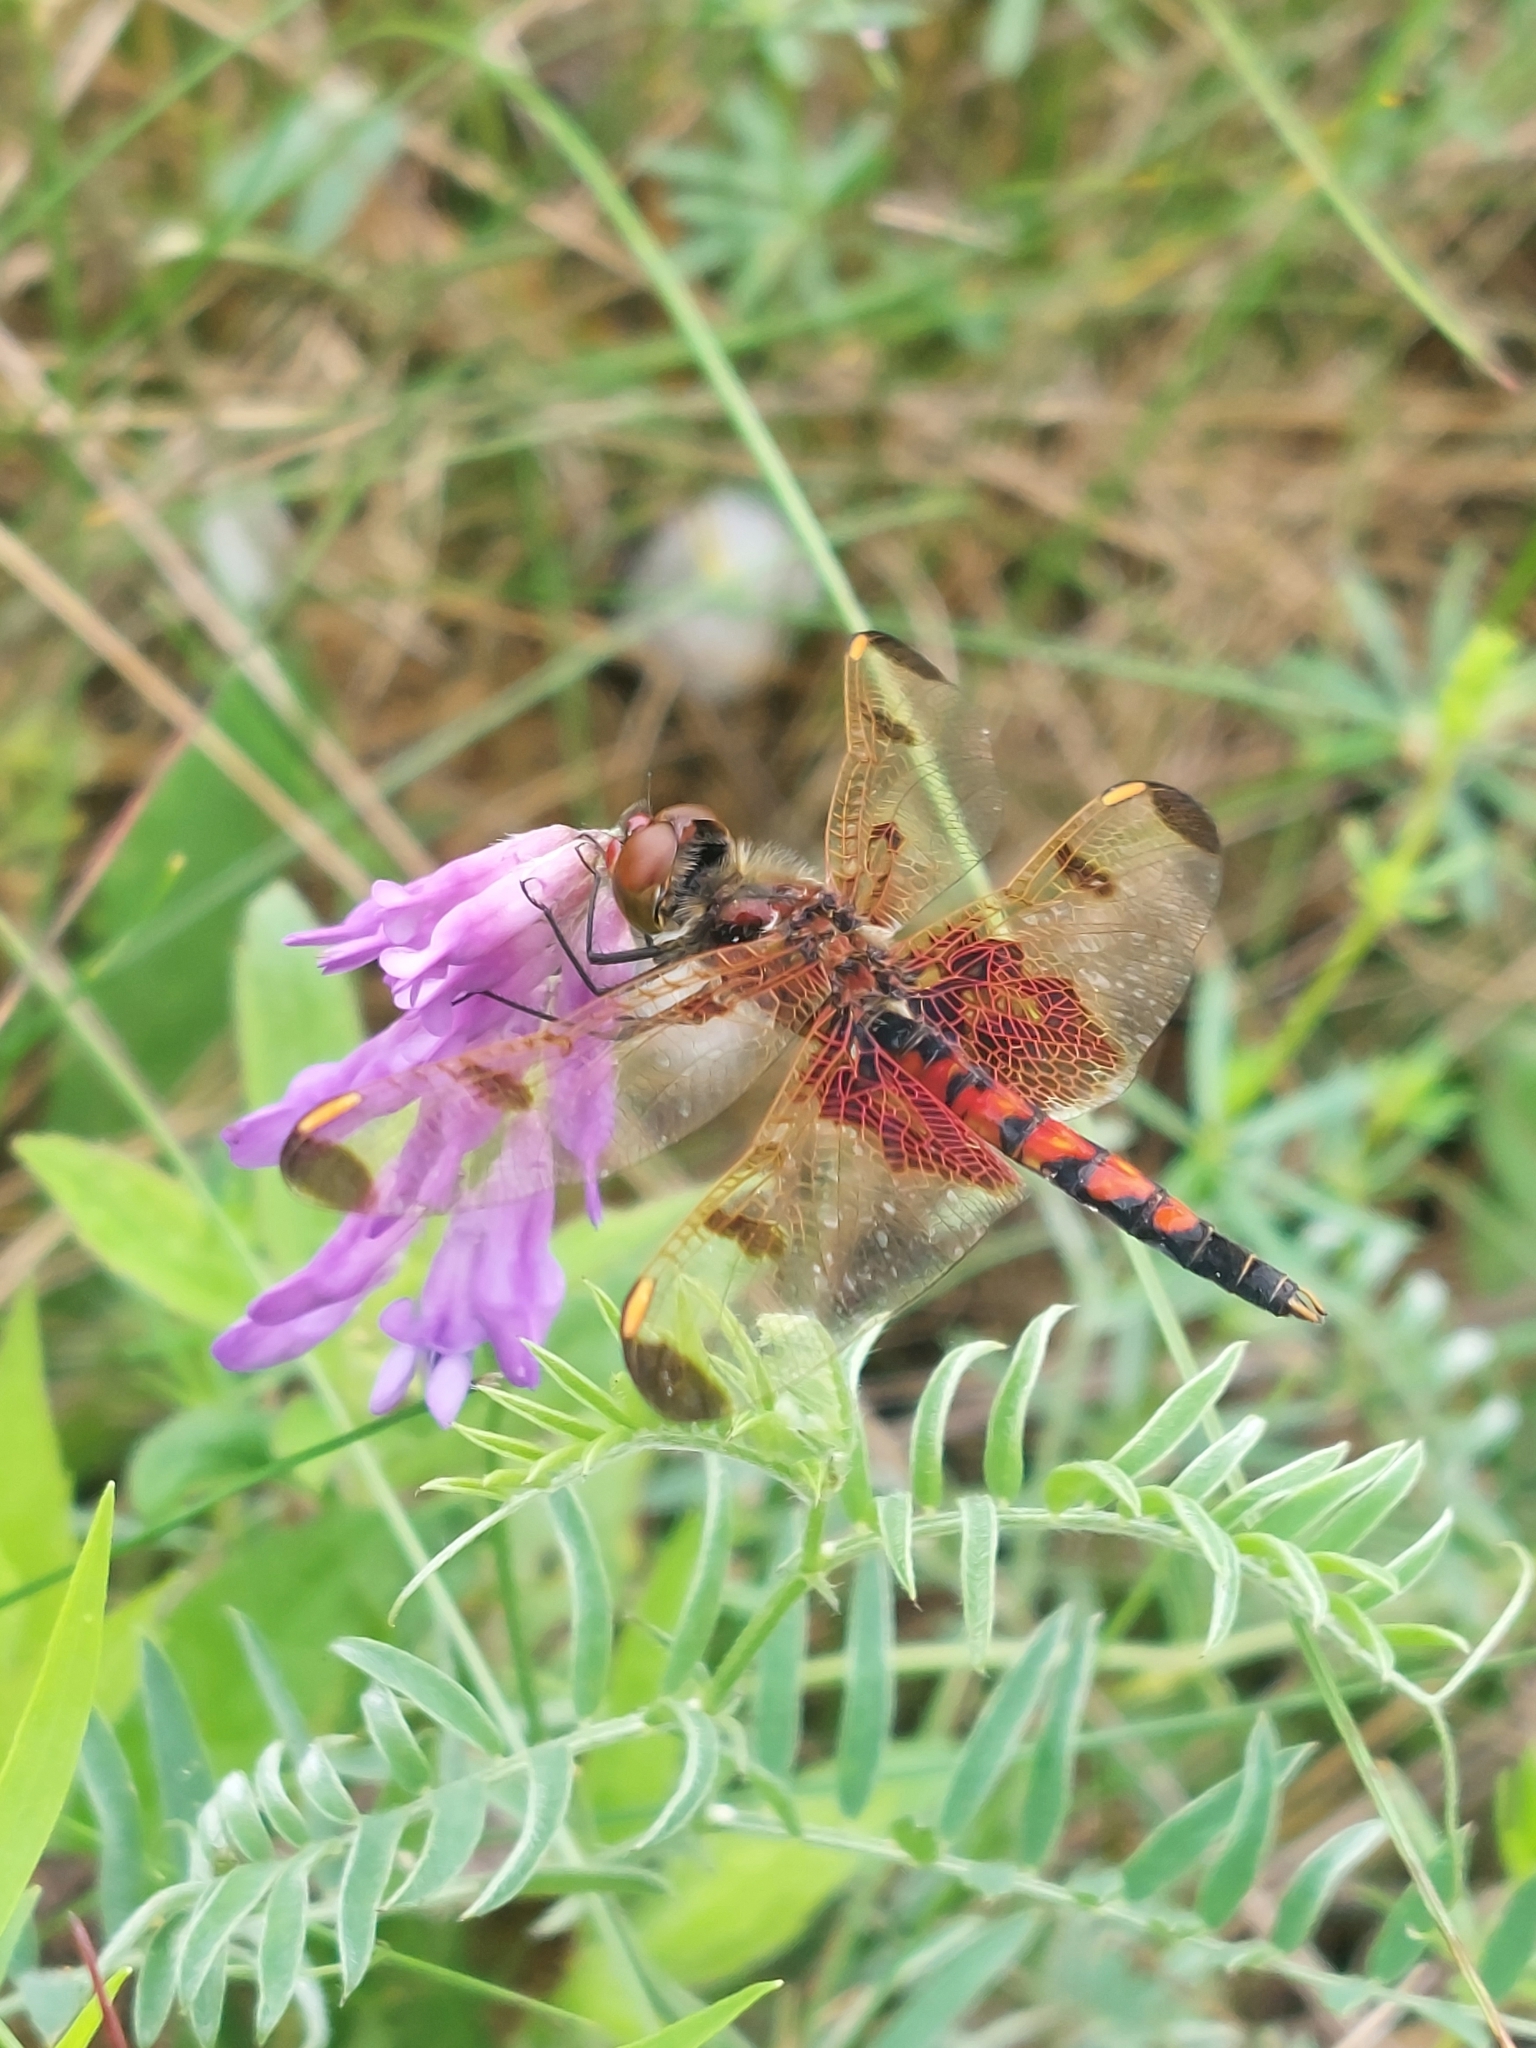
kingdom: Animalia
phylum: Arthropoda
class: Insecta
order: Odonata
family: Libellulidae
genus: Celithemis
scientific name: Celithemis elisa
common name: Calico pennant
